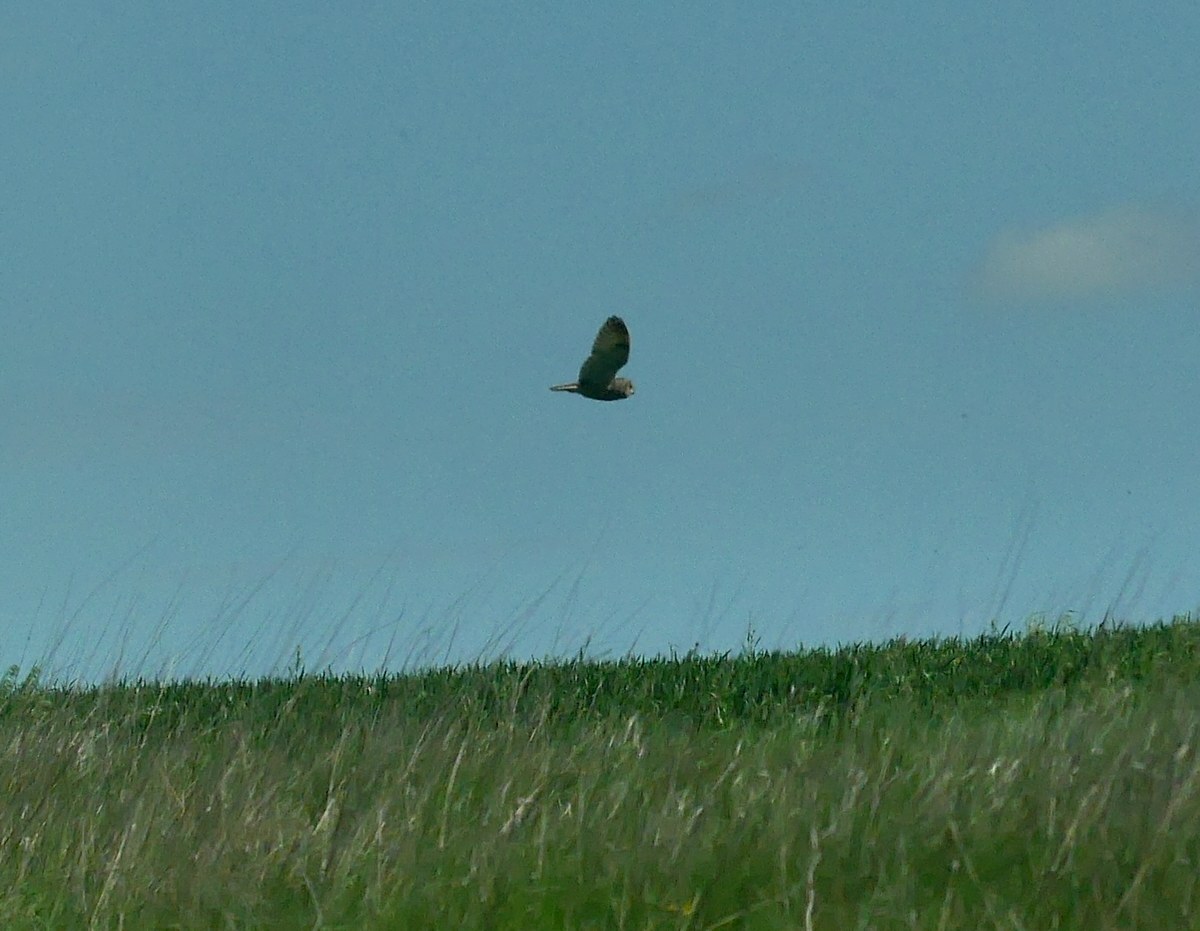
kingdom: Animalia
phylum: Chordata
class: Aves
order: Strigiformes
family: Strigidae
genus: Asio
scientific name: Asio otus
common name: Long-eared owl
